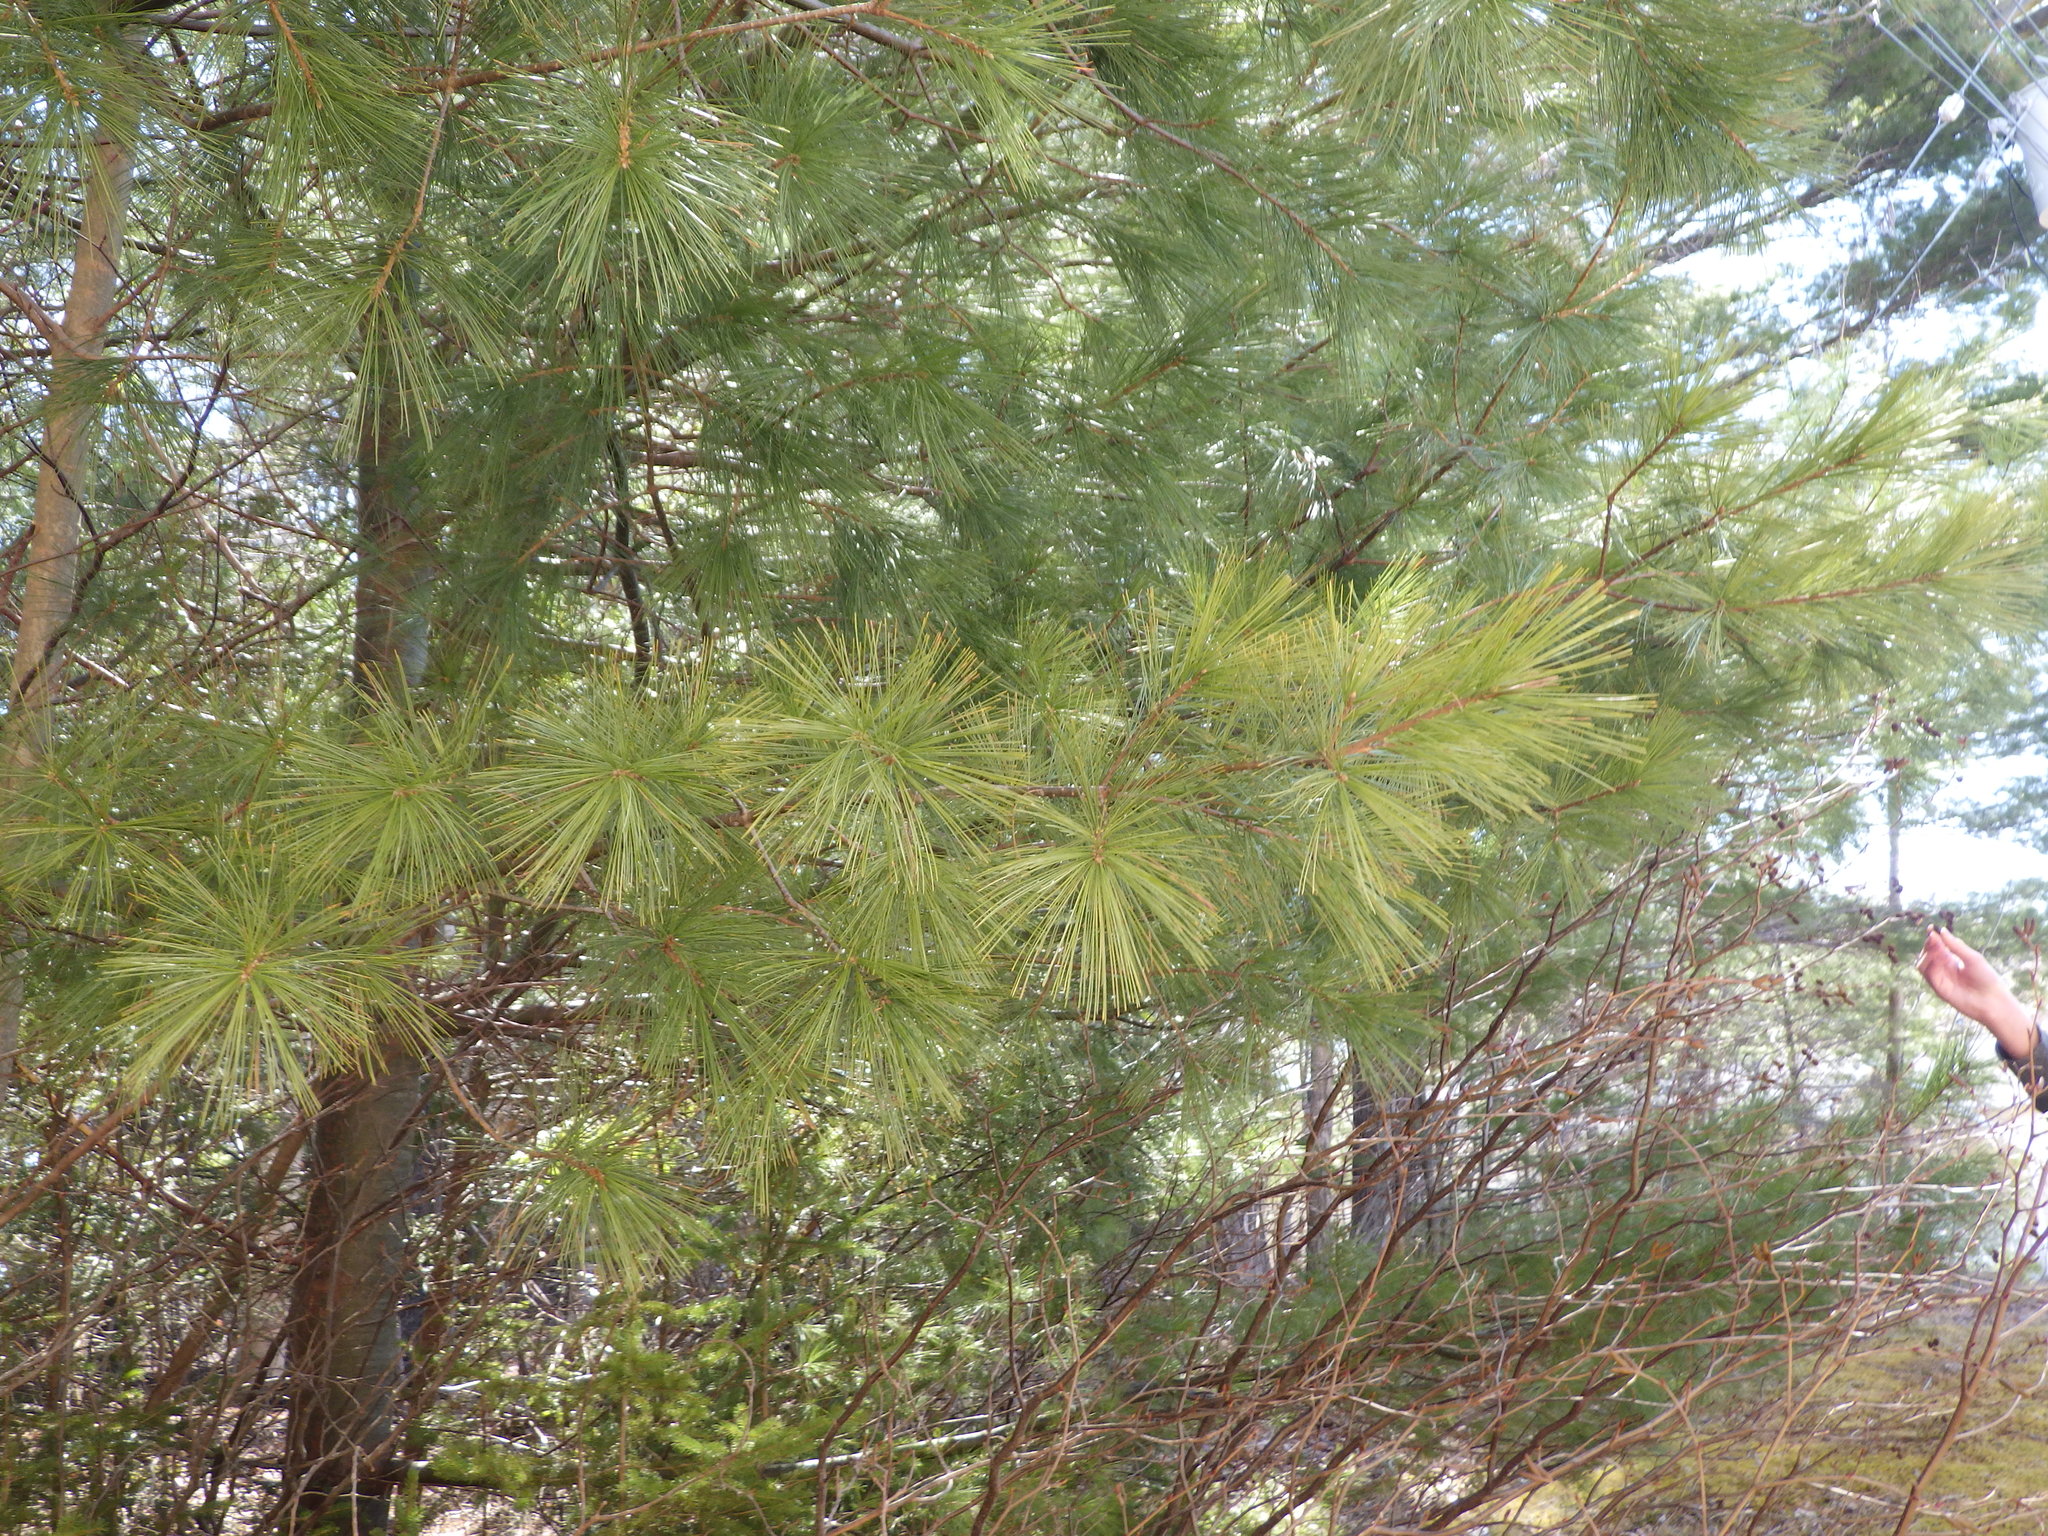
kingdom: Plantae
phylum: Tracheophyta
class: Pinopsida
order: Pinales
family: Pinaceae
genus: Pinus
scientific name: Pinus strobus
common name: Weymouth pine
